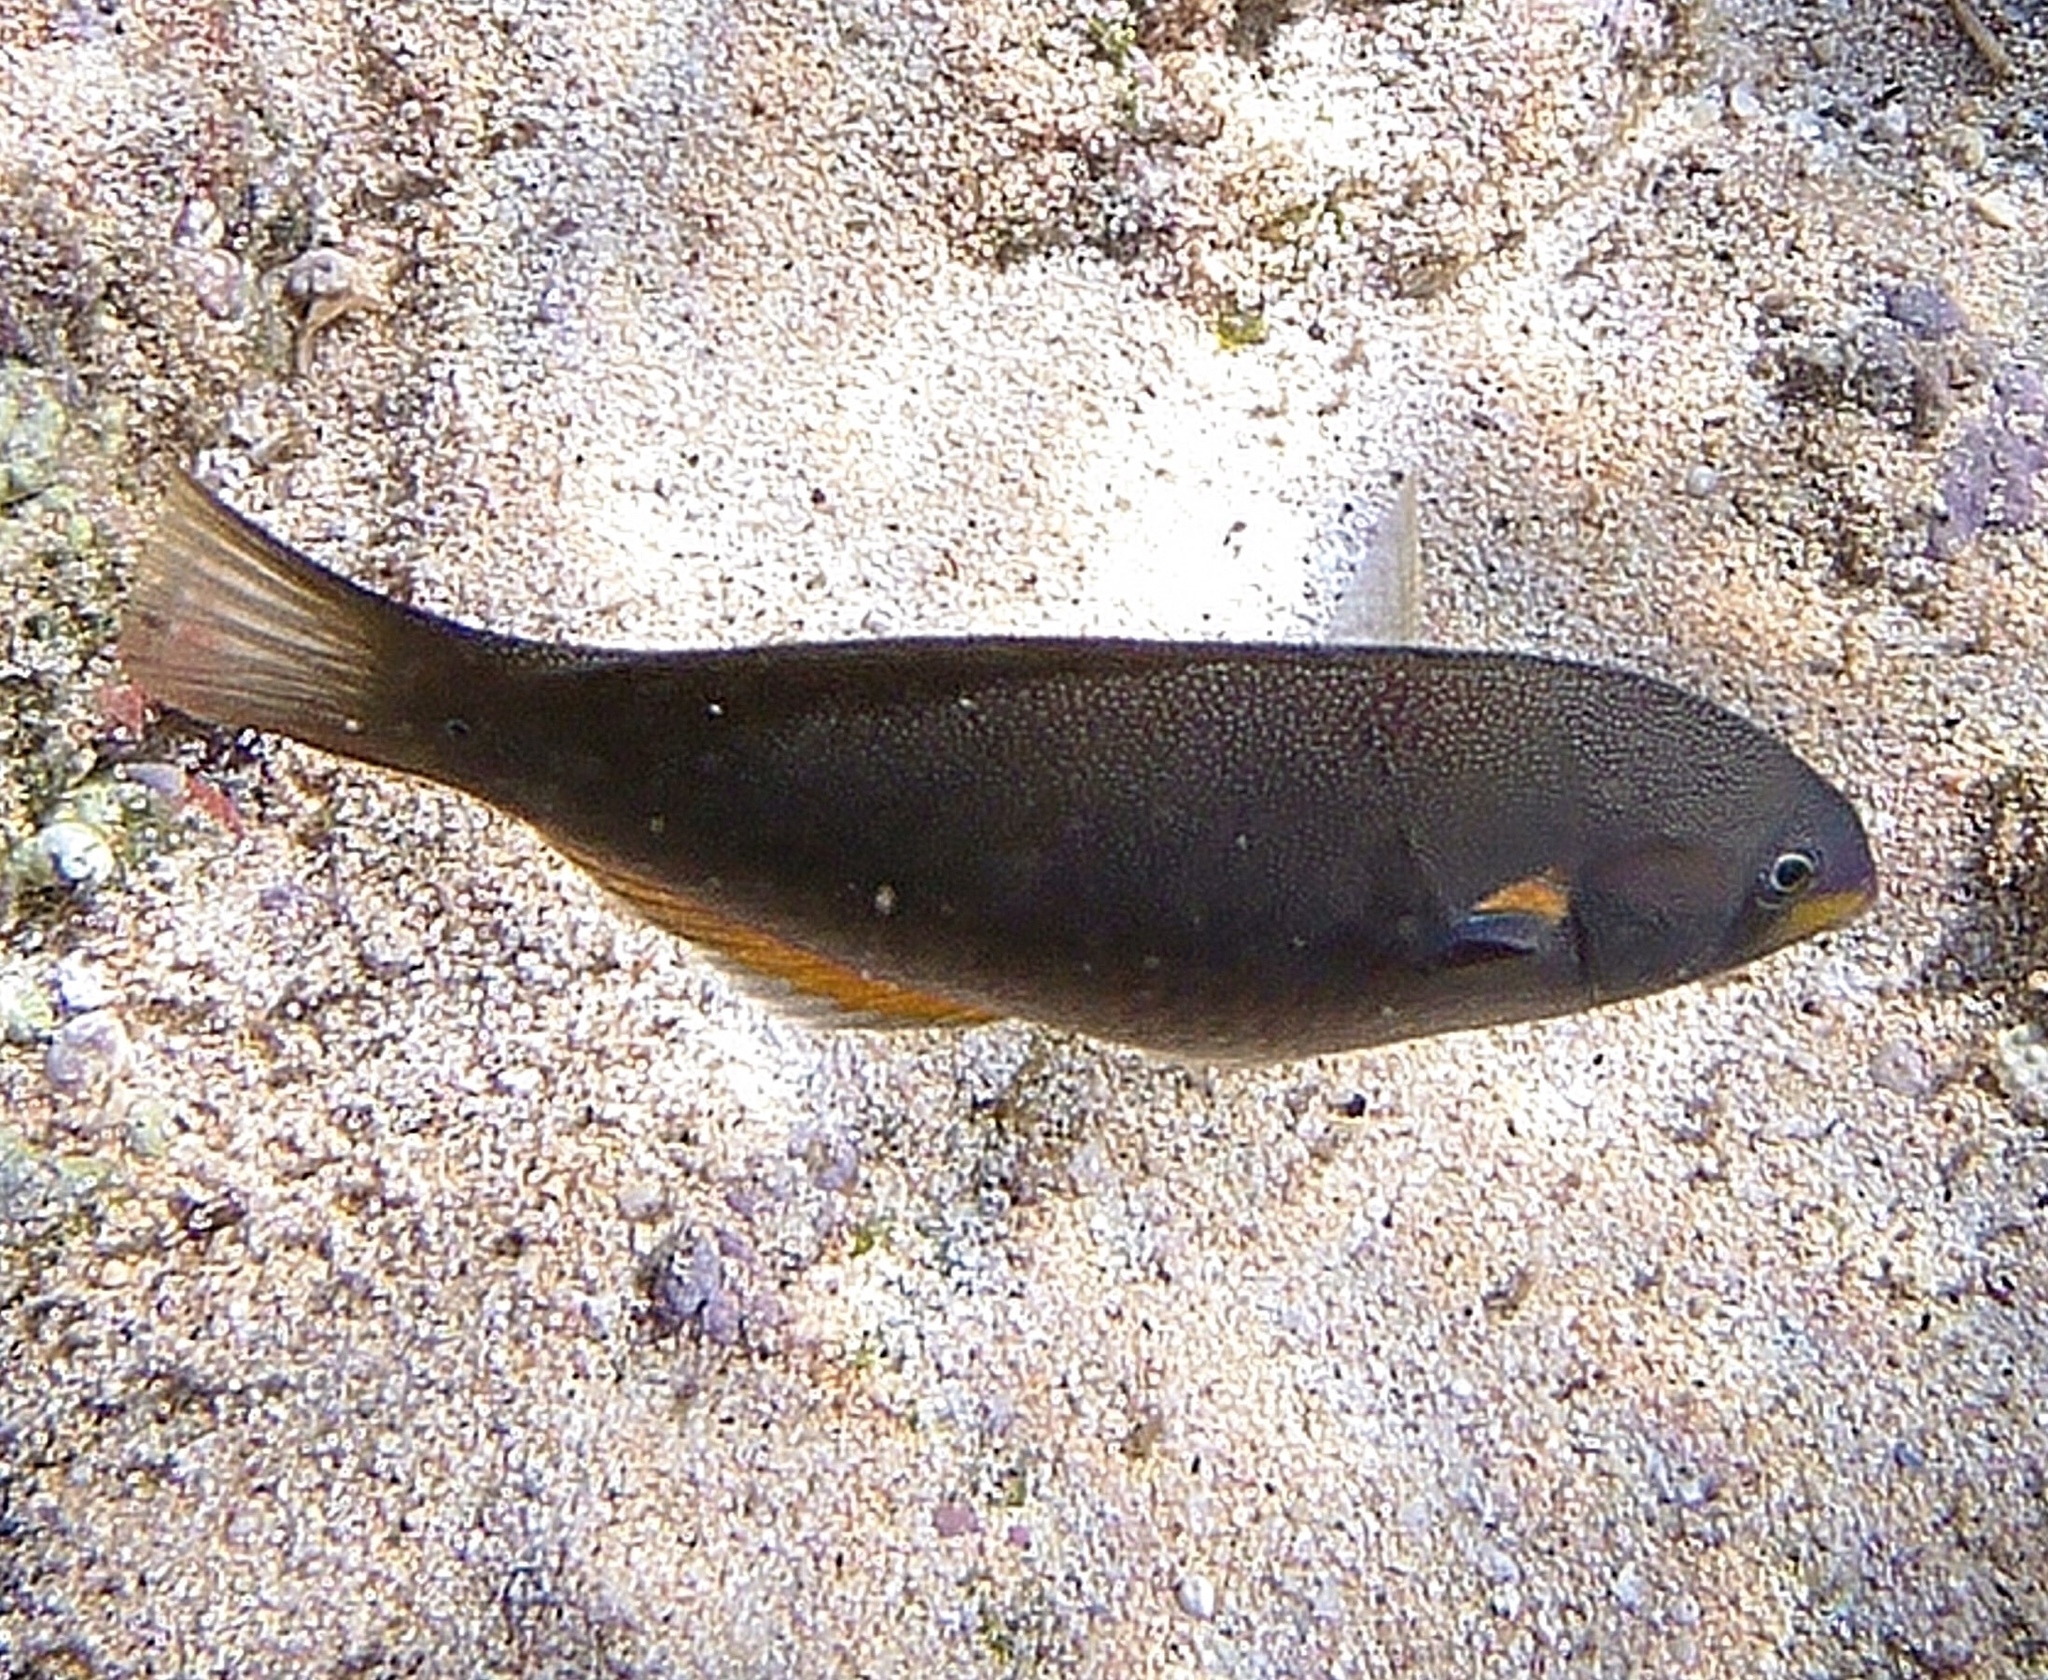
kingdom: Animalia
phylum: Chordata
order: Perciformes
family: Labridae
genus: Stethojulis
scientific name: Stethojulis balteata
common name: Belted wrasse
